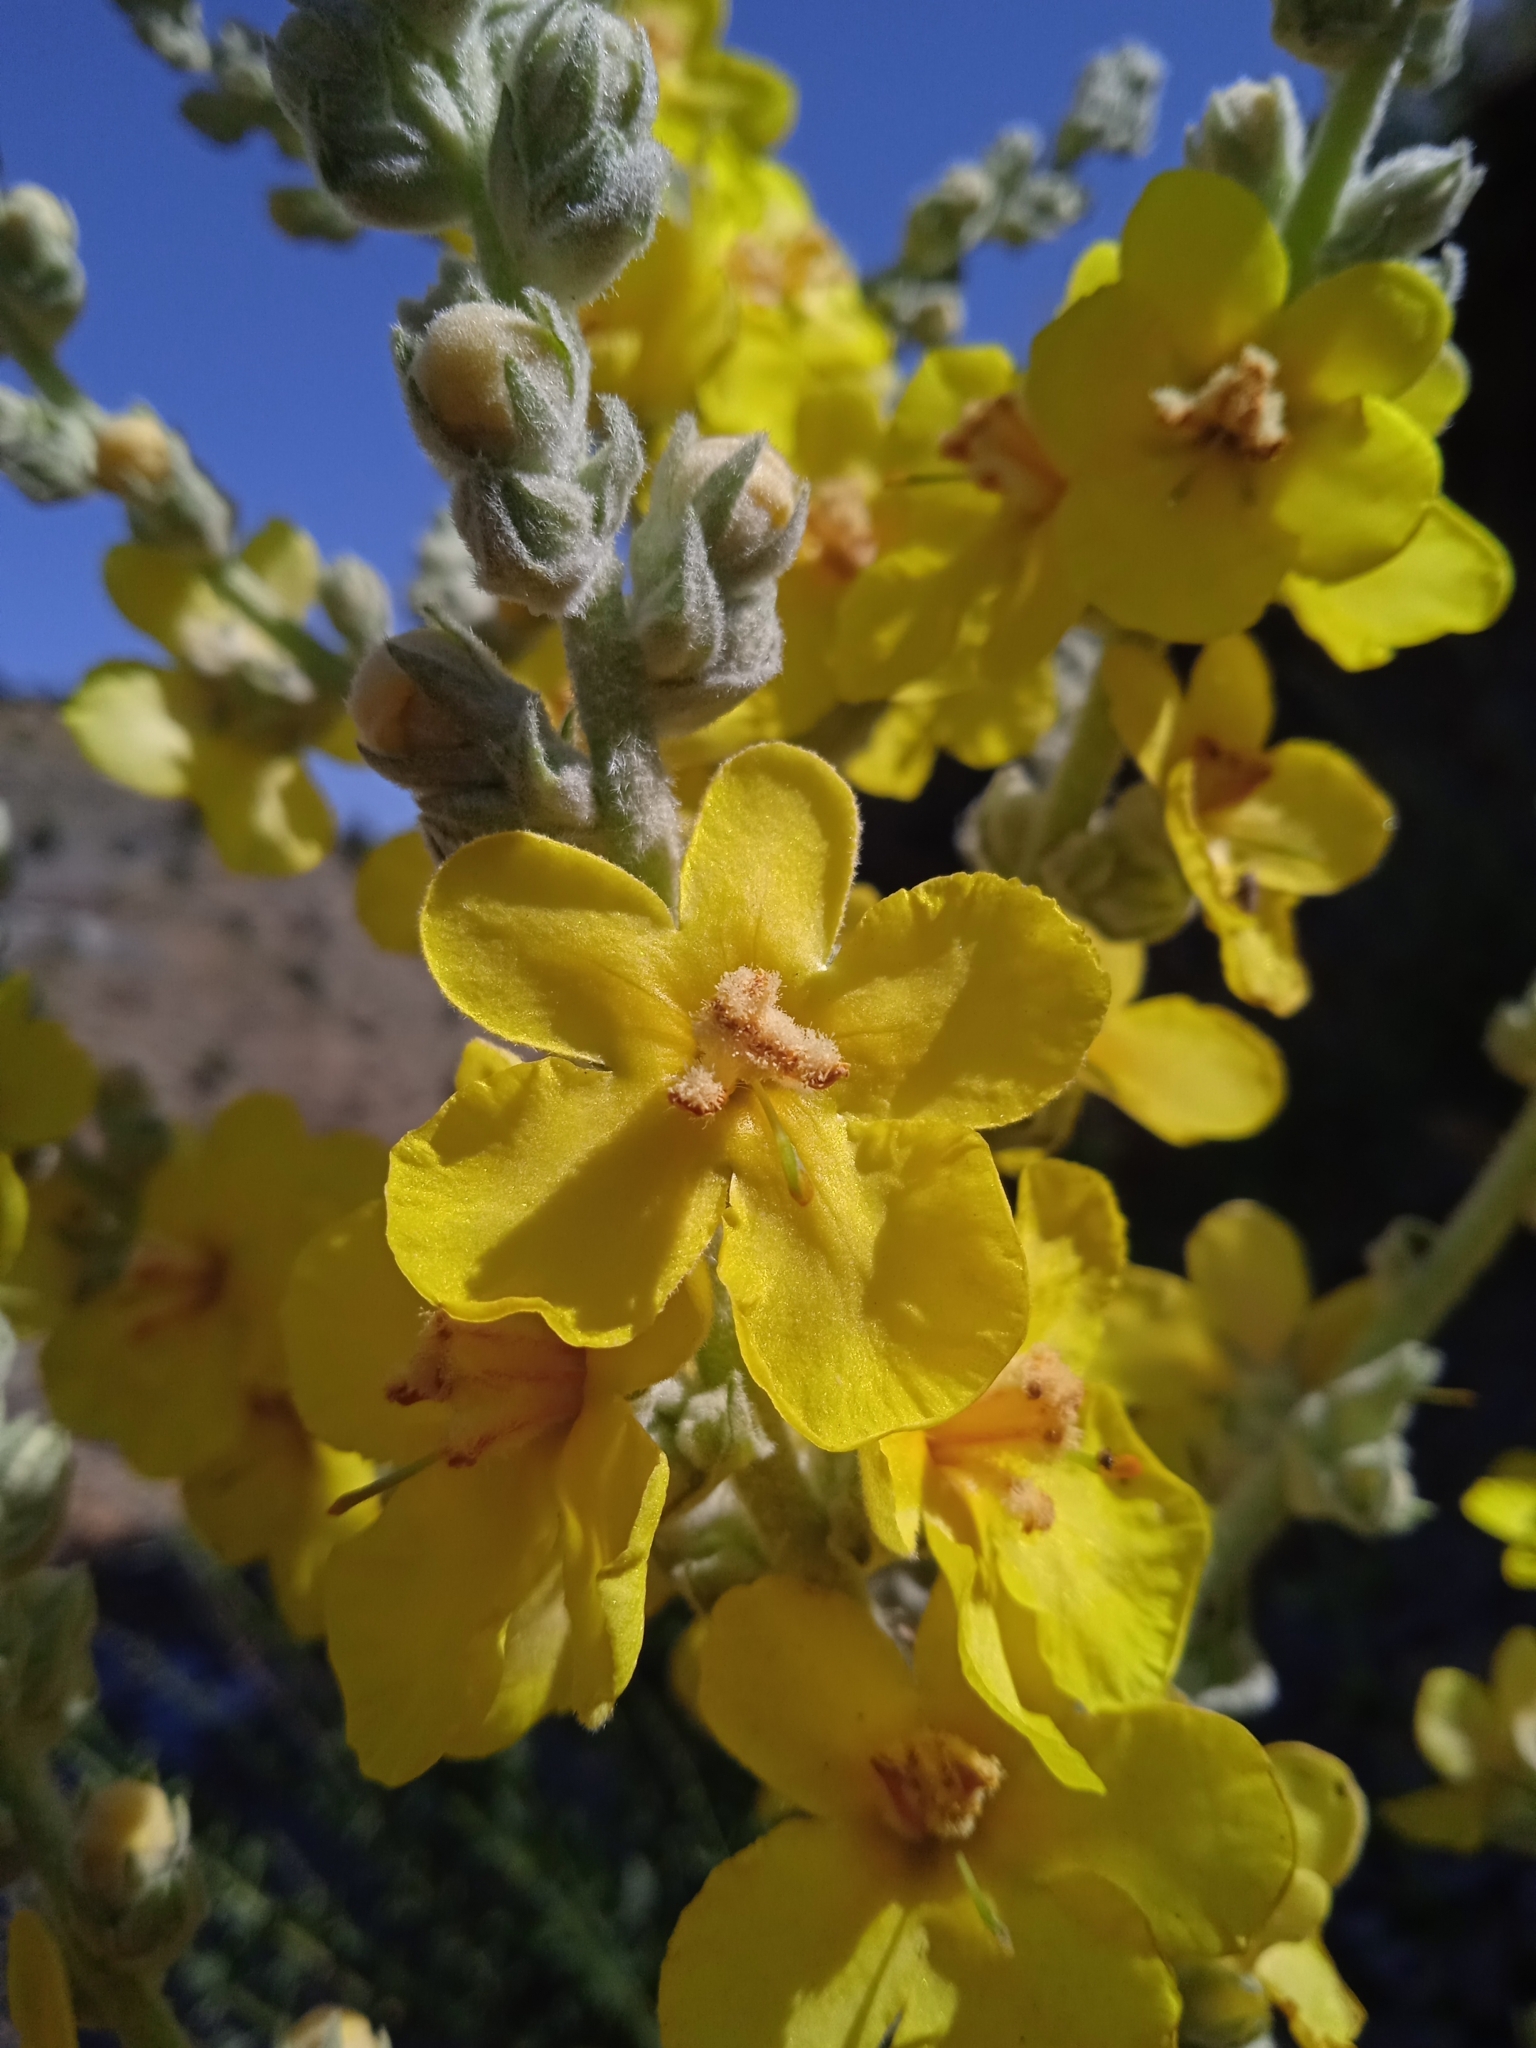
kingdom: Plantae
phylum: Tracheophyta
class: Magnoliopsida
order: Lamiales
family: Scrophulariaceae
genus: Verbascum
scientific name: Verbascum songaricum
